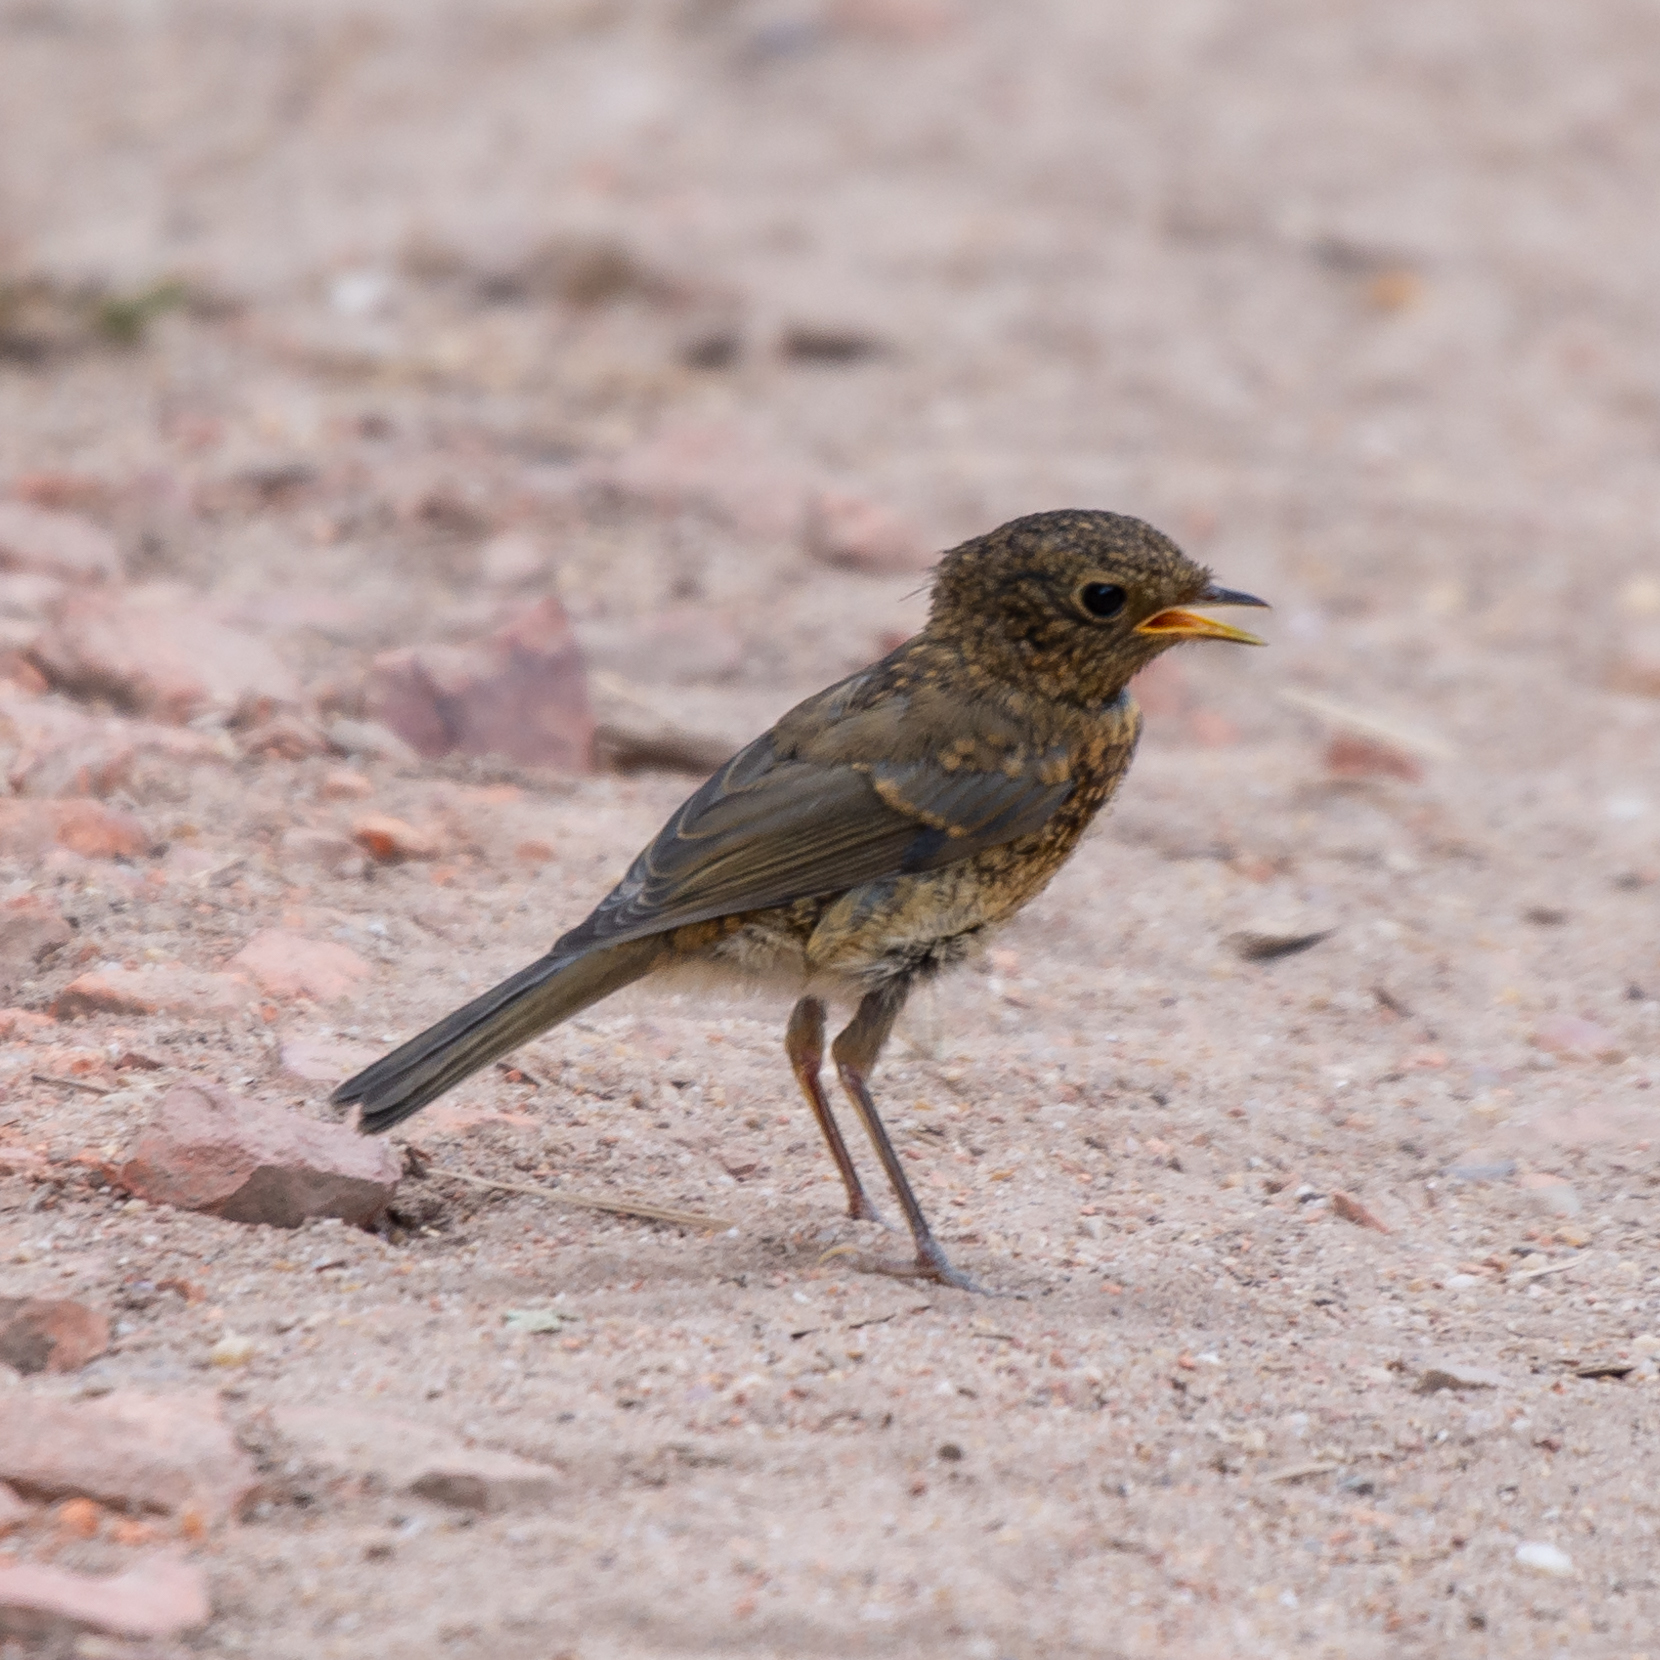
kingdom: Animalia
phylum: Chordata
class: Aves
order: Passeriformes
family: Muscicapidae
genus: Erithacus
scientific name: Erithacus rubecula
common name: European robin
